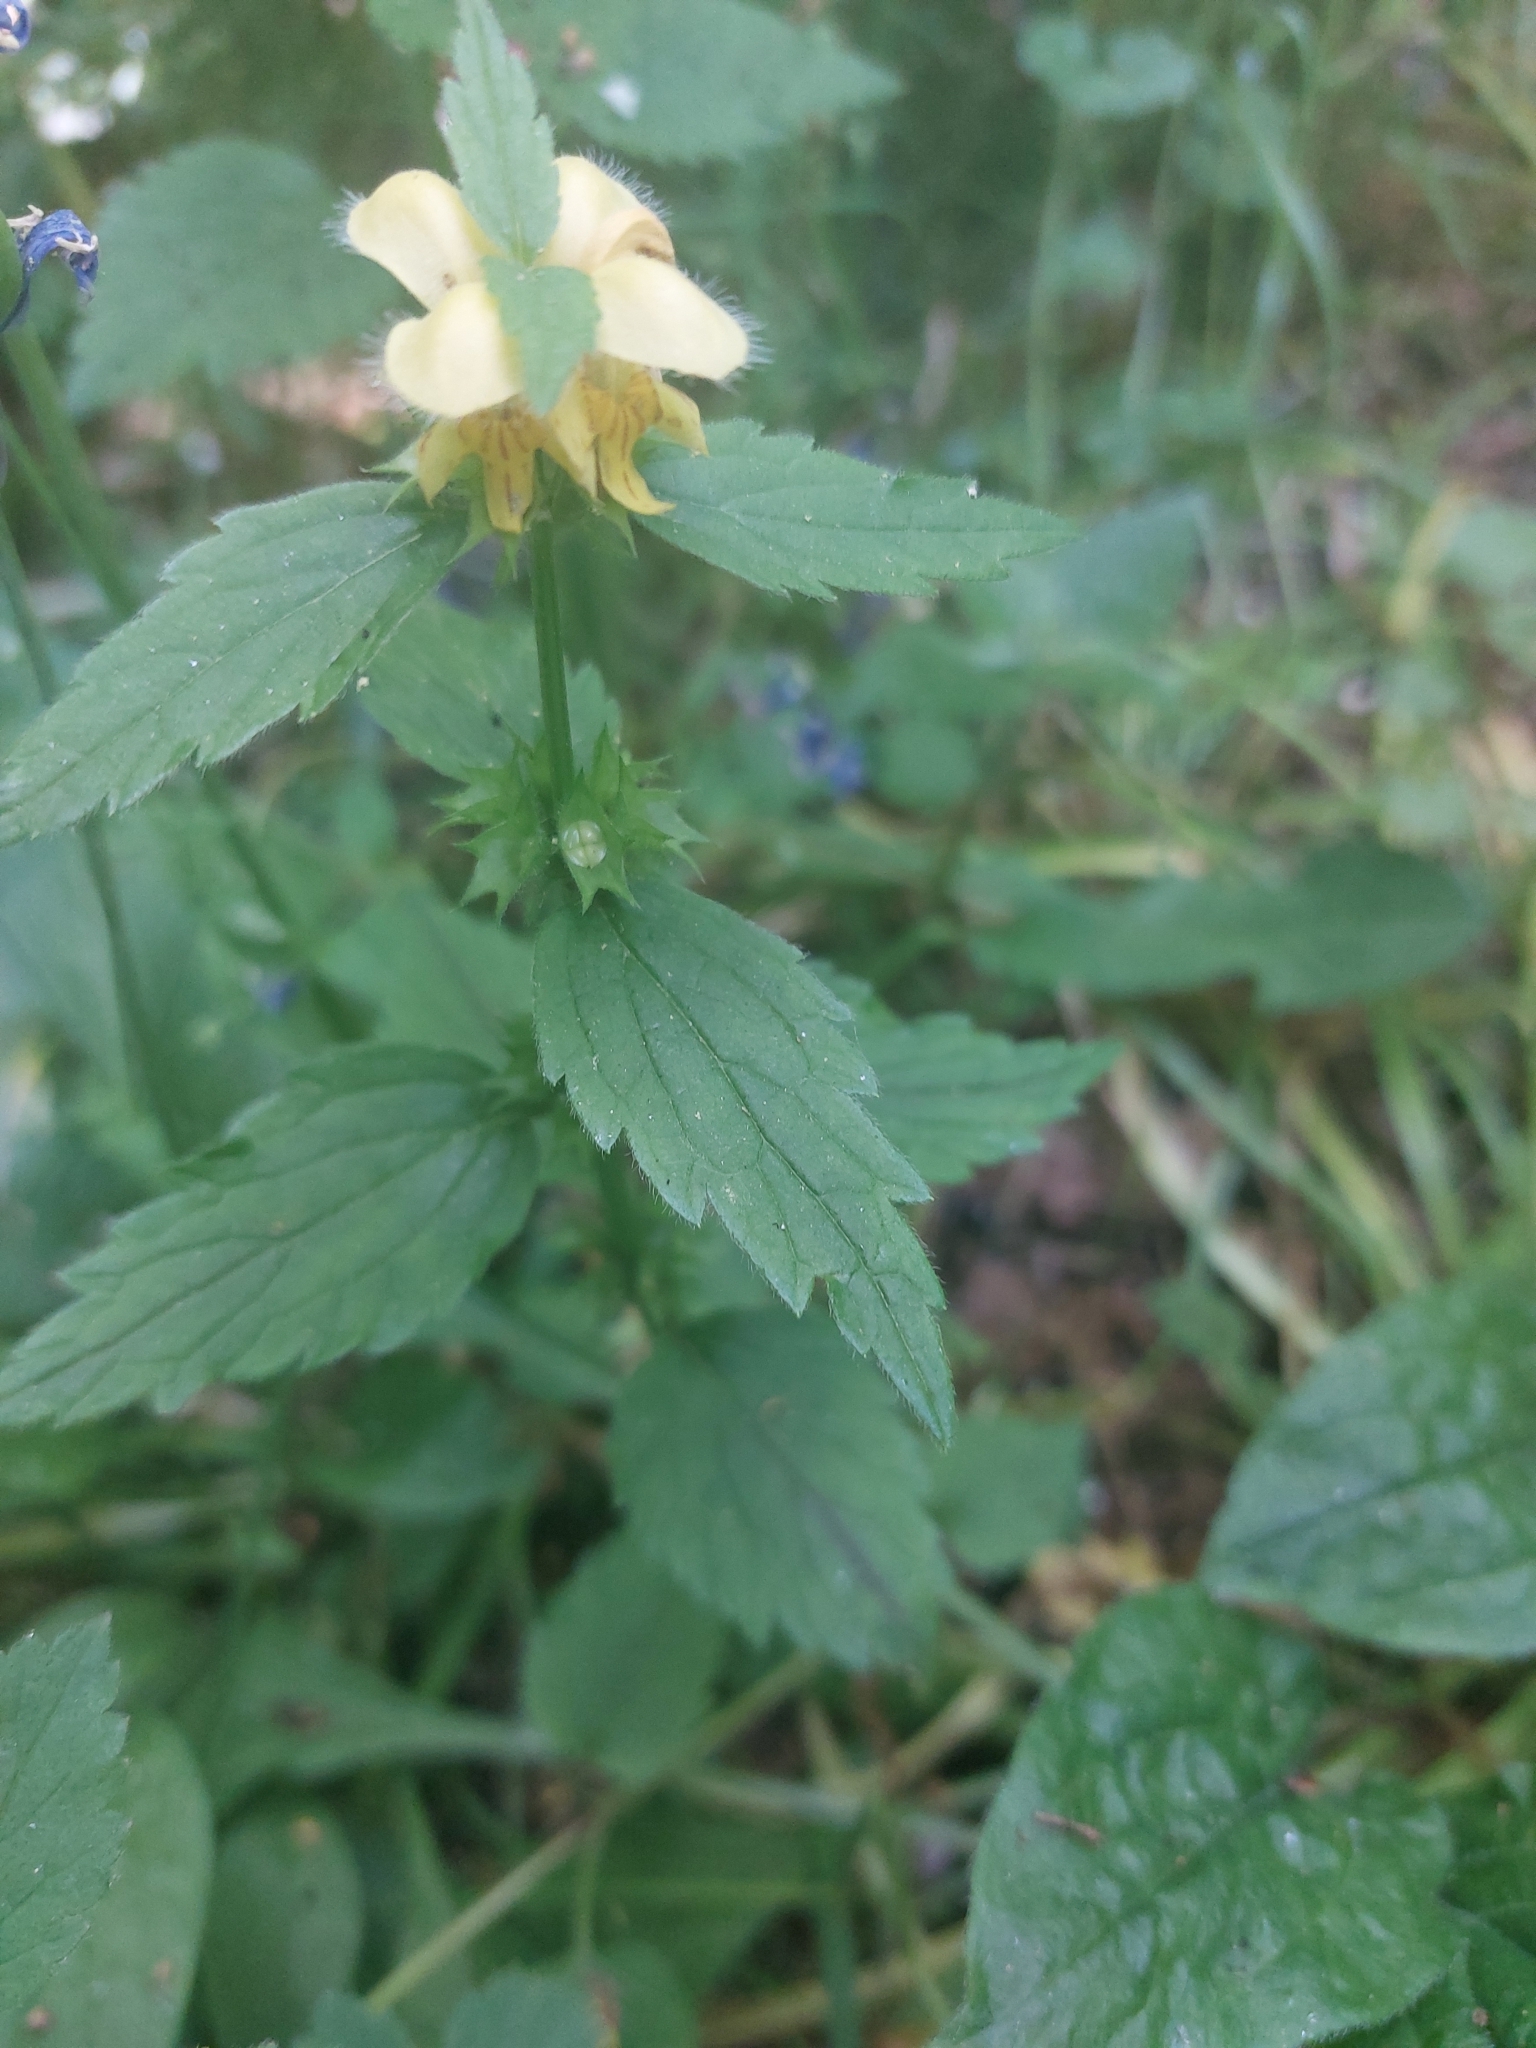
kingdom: Plantae
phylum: Tracheophyta
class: Magnoliopsida
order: Lamiales
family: Lamiaceae
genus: Lamium
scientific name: Lamium galeobdolon
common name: Yellow archangel
